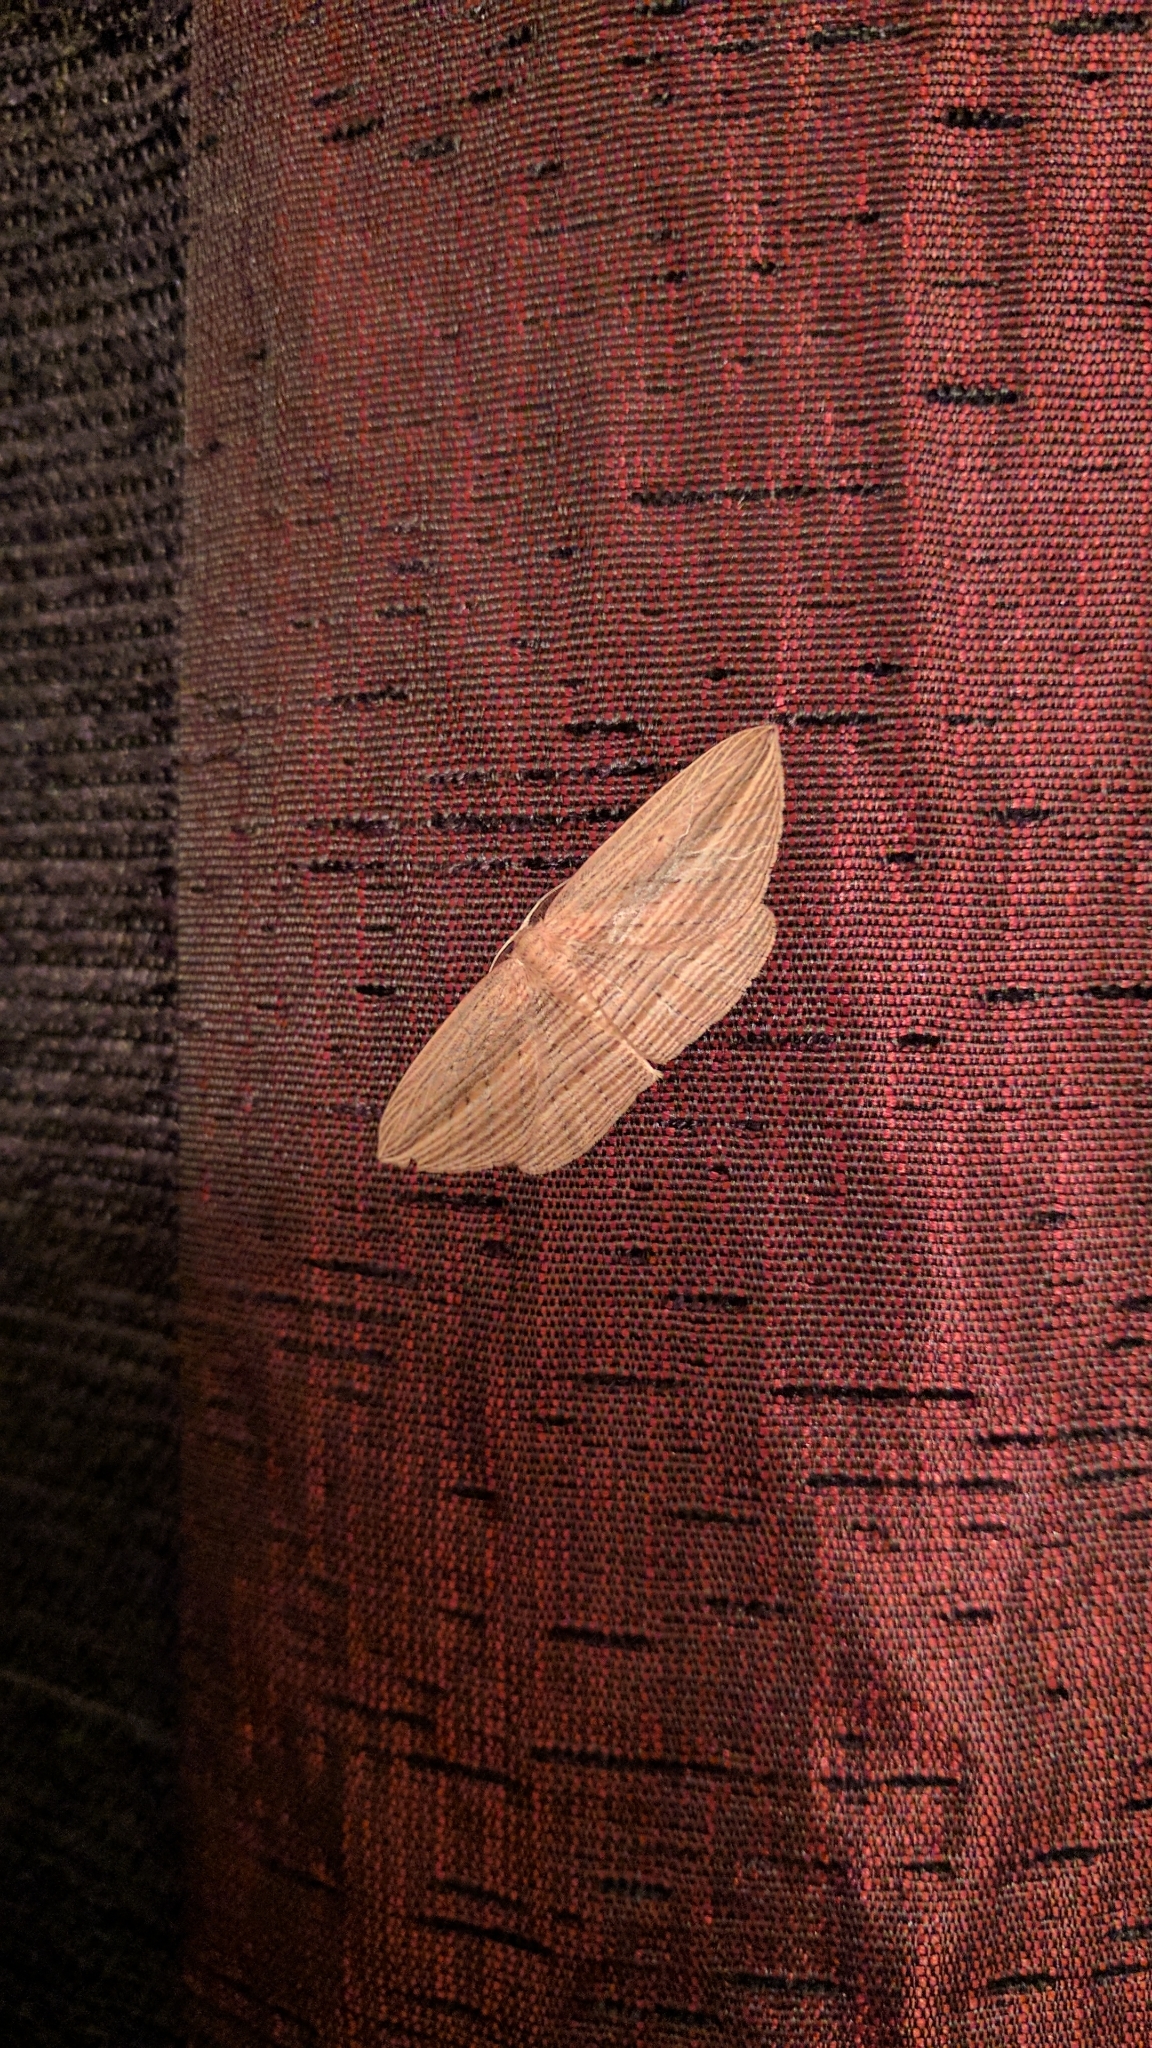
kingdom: Animalia
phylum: Arthropoda
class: Insecta
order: Lepidoptera
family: Geometridae
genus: Epiphryne
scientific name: Epiphryne verriculata
